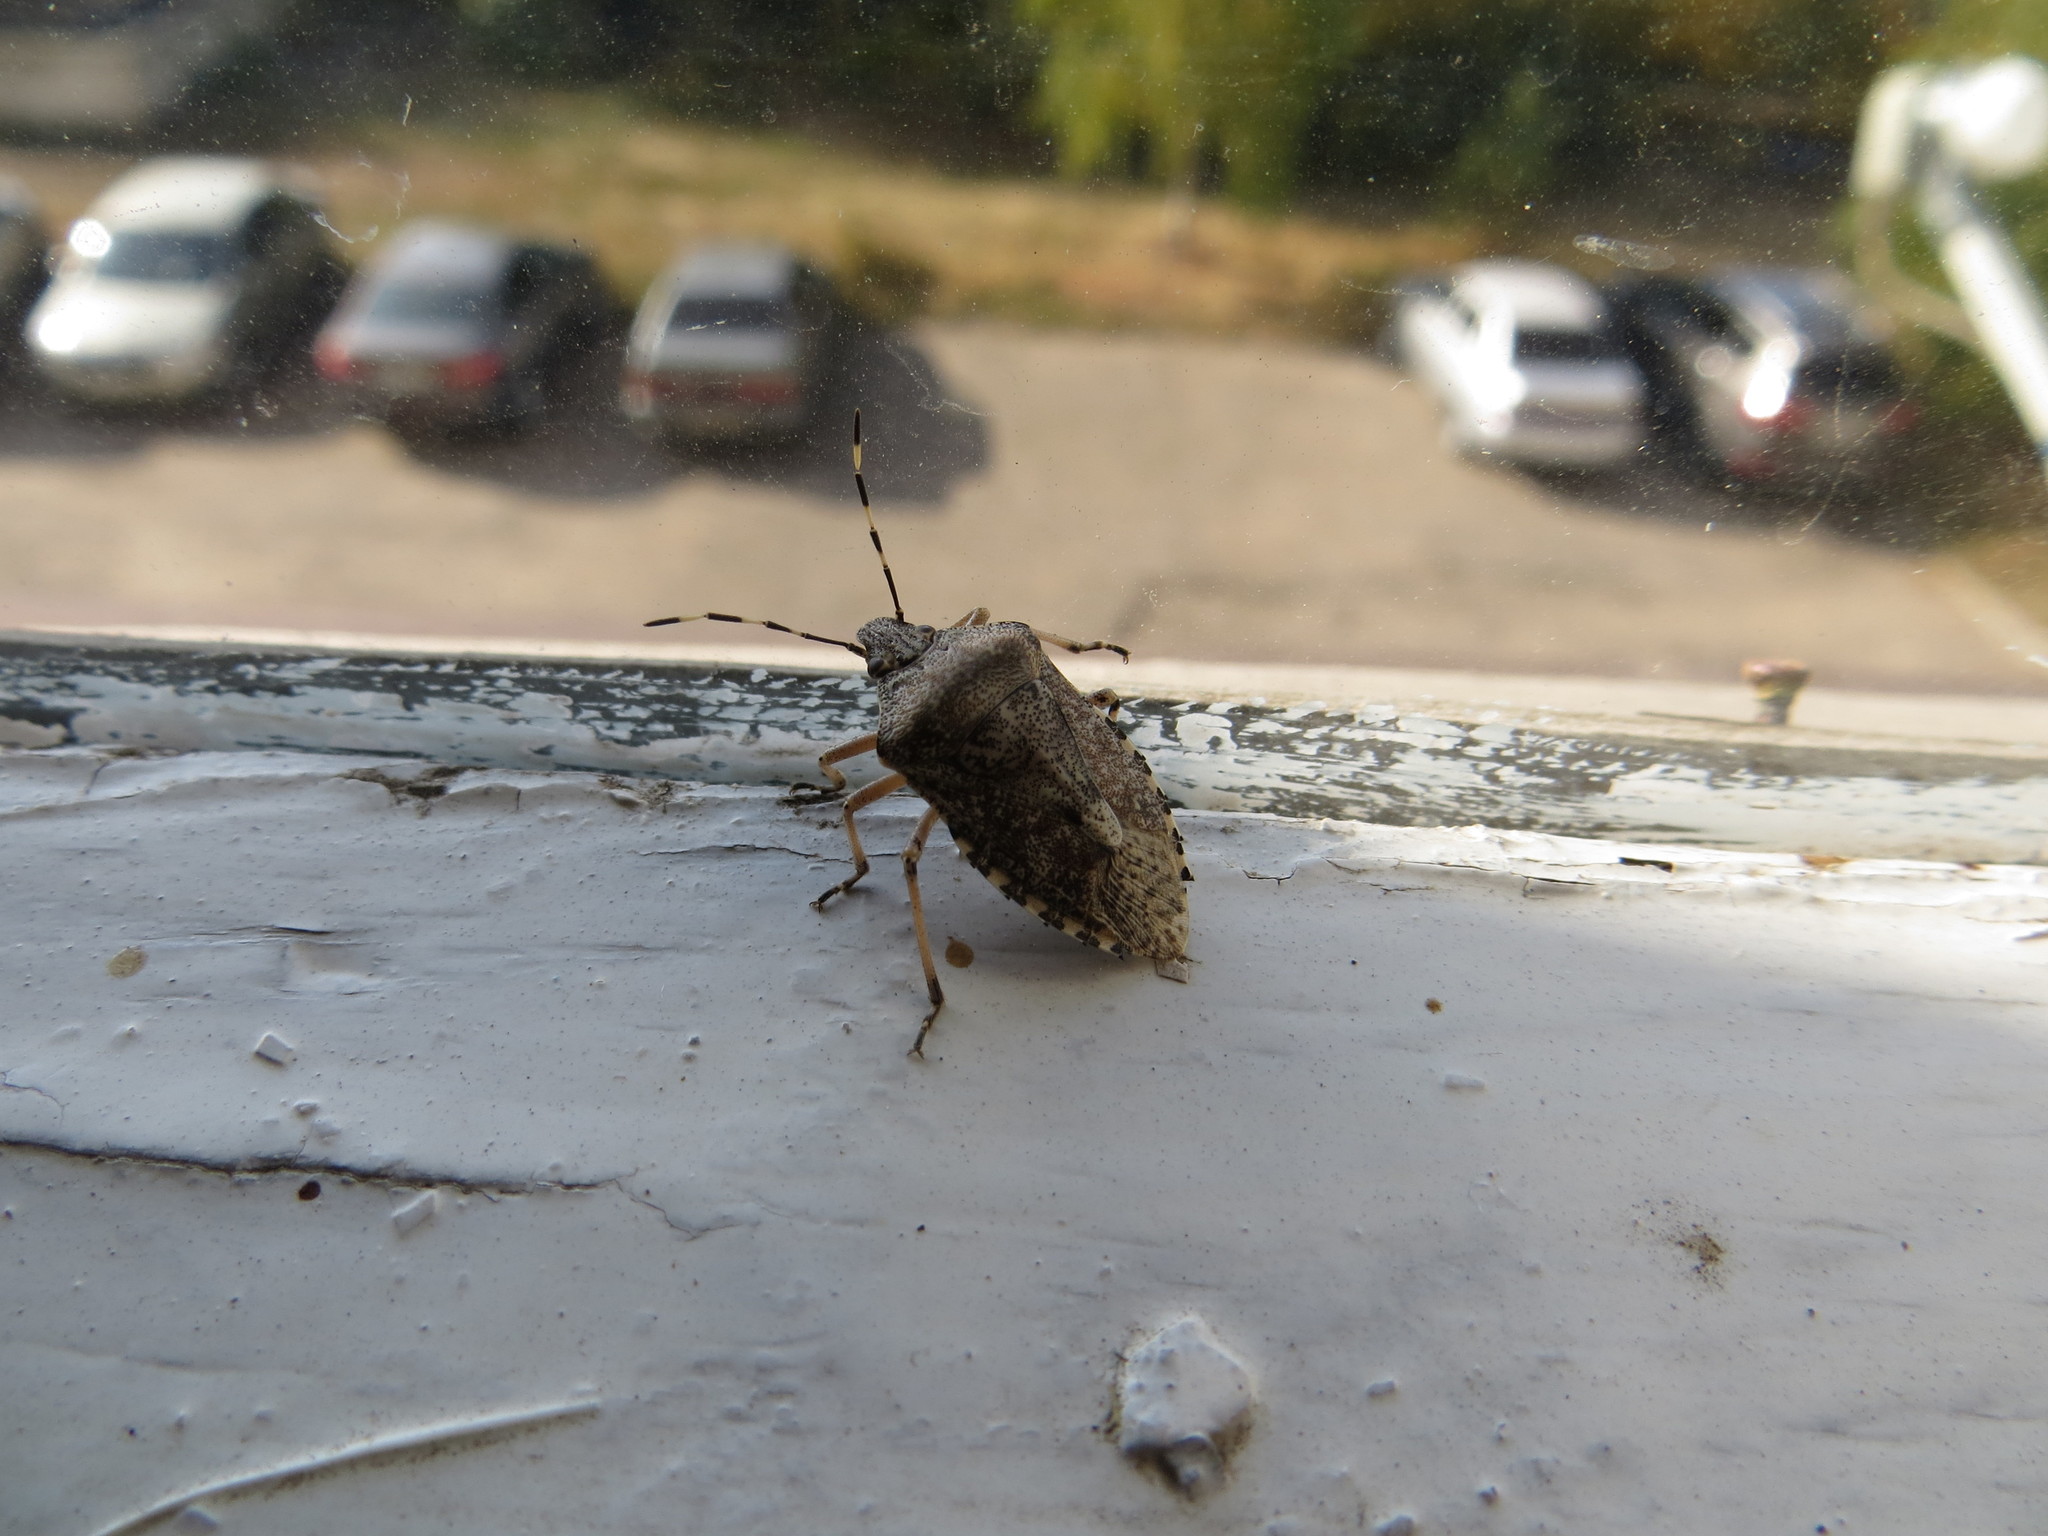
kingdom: Animalia
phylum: Arthropoda
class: Insecta
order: Hemiptera
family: Pentatomidae
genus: Rhaphigaster
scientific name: Rhaphigaster nebulosa
